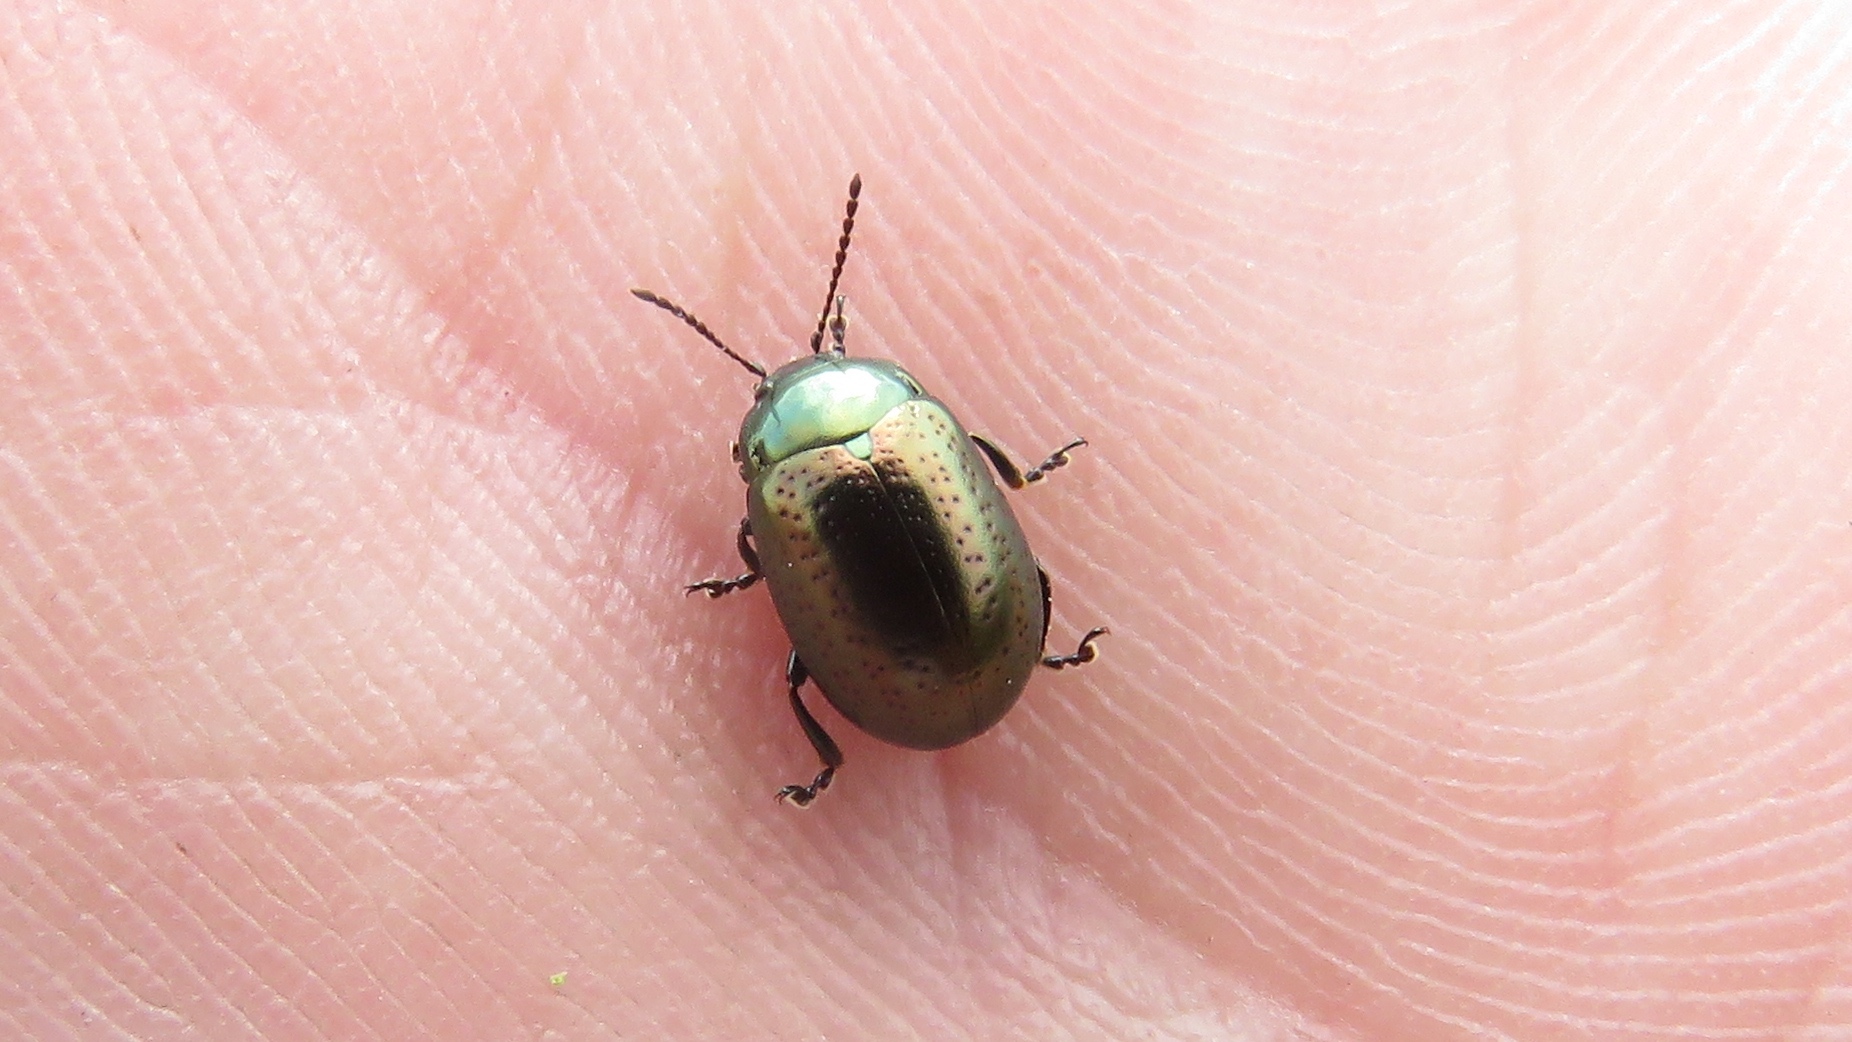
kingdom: Animalia
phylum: Arthropoda
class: Insecta
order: Coleoptera
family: Chrysomelidae
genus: Chrysolina
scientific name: Chrysolina hyperici
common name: St. johnswort beetle
